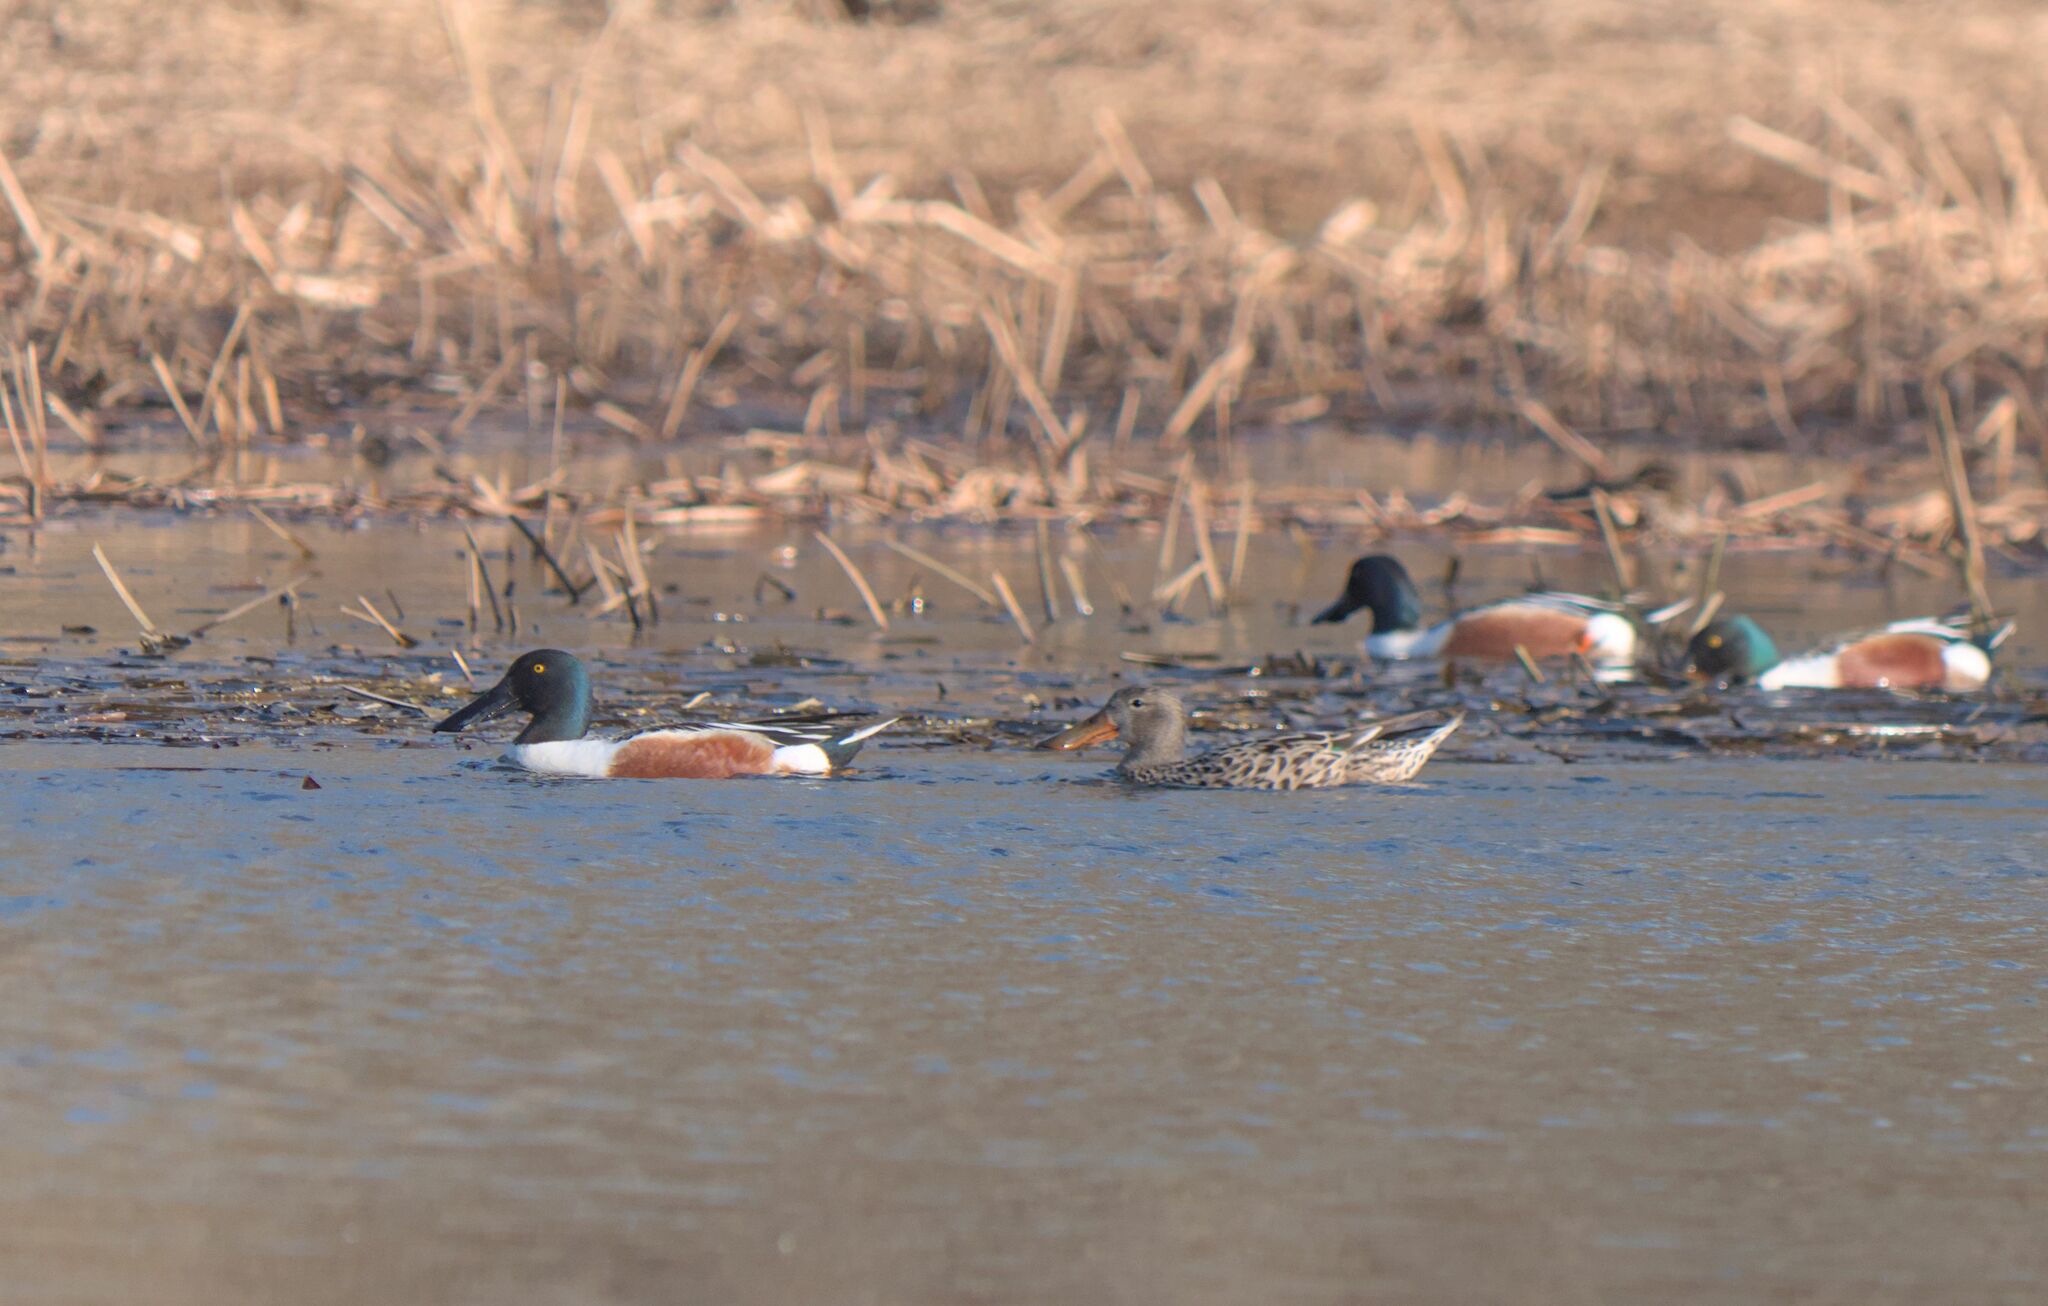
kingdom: Animalia
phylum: Chordata
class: Aves
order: Anseriformes
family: Anatidae
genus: Spatula
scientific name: Spatula clypeata
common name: Northern shoveler
